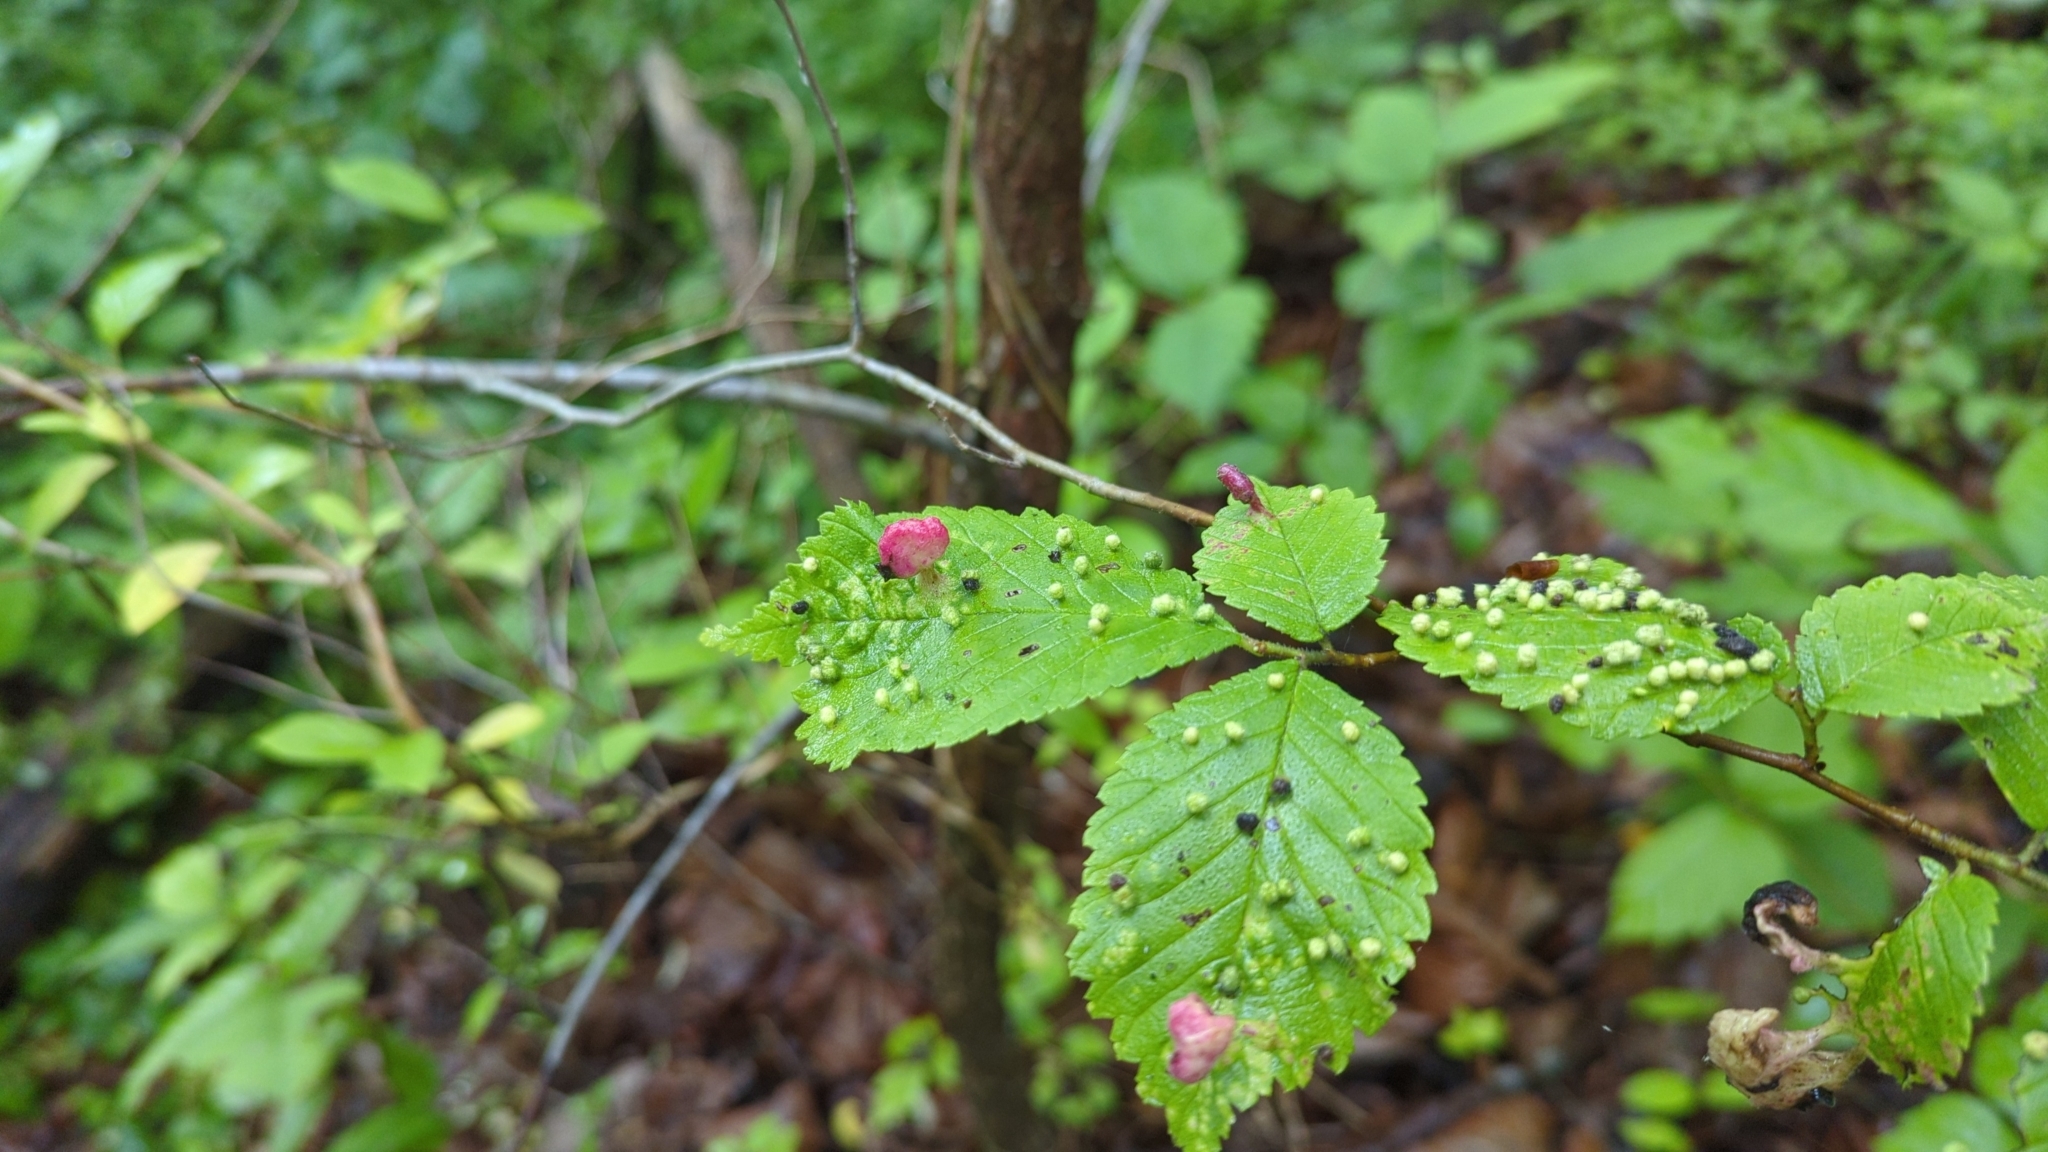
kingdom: Animalia
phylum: Arthropoda
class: Insecta
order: Hemiptera
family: Aphididae
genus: Tetraneura
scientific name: Tetraneura nigriabdominalis
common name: Aphid
